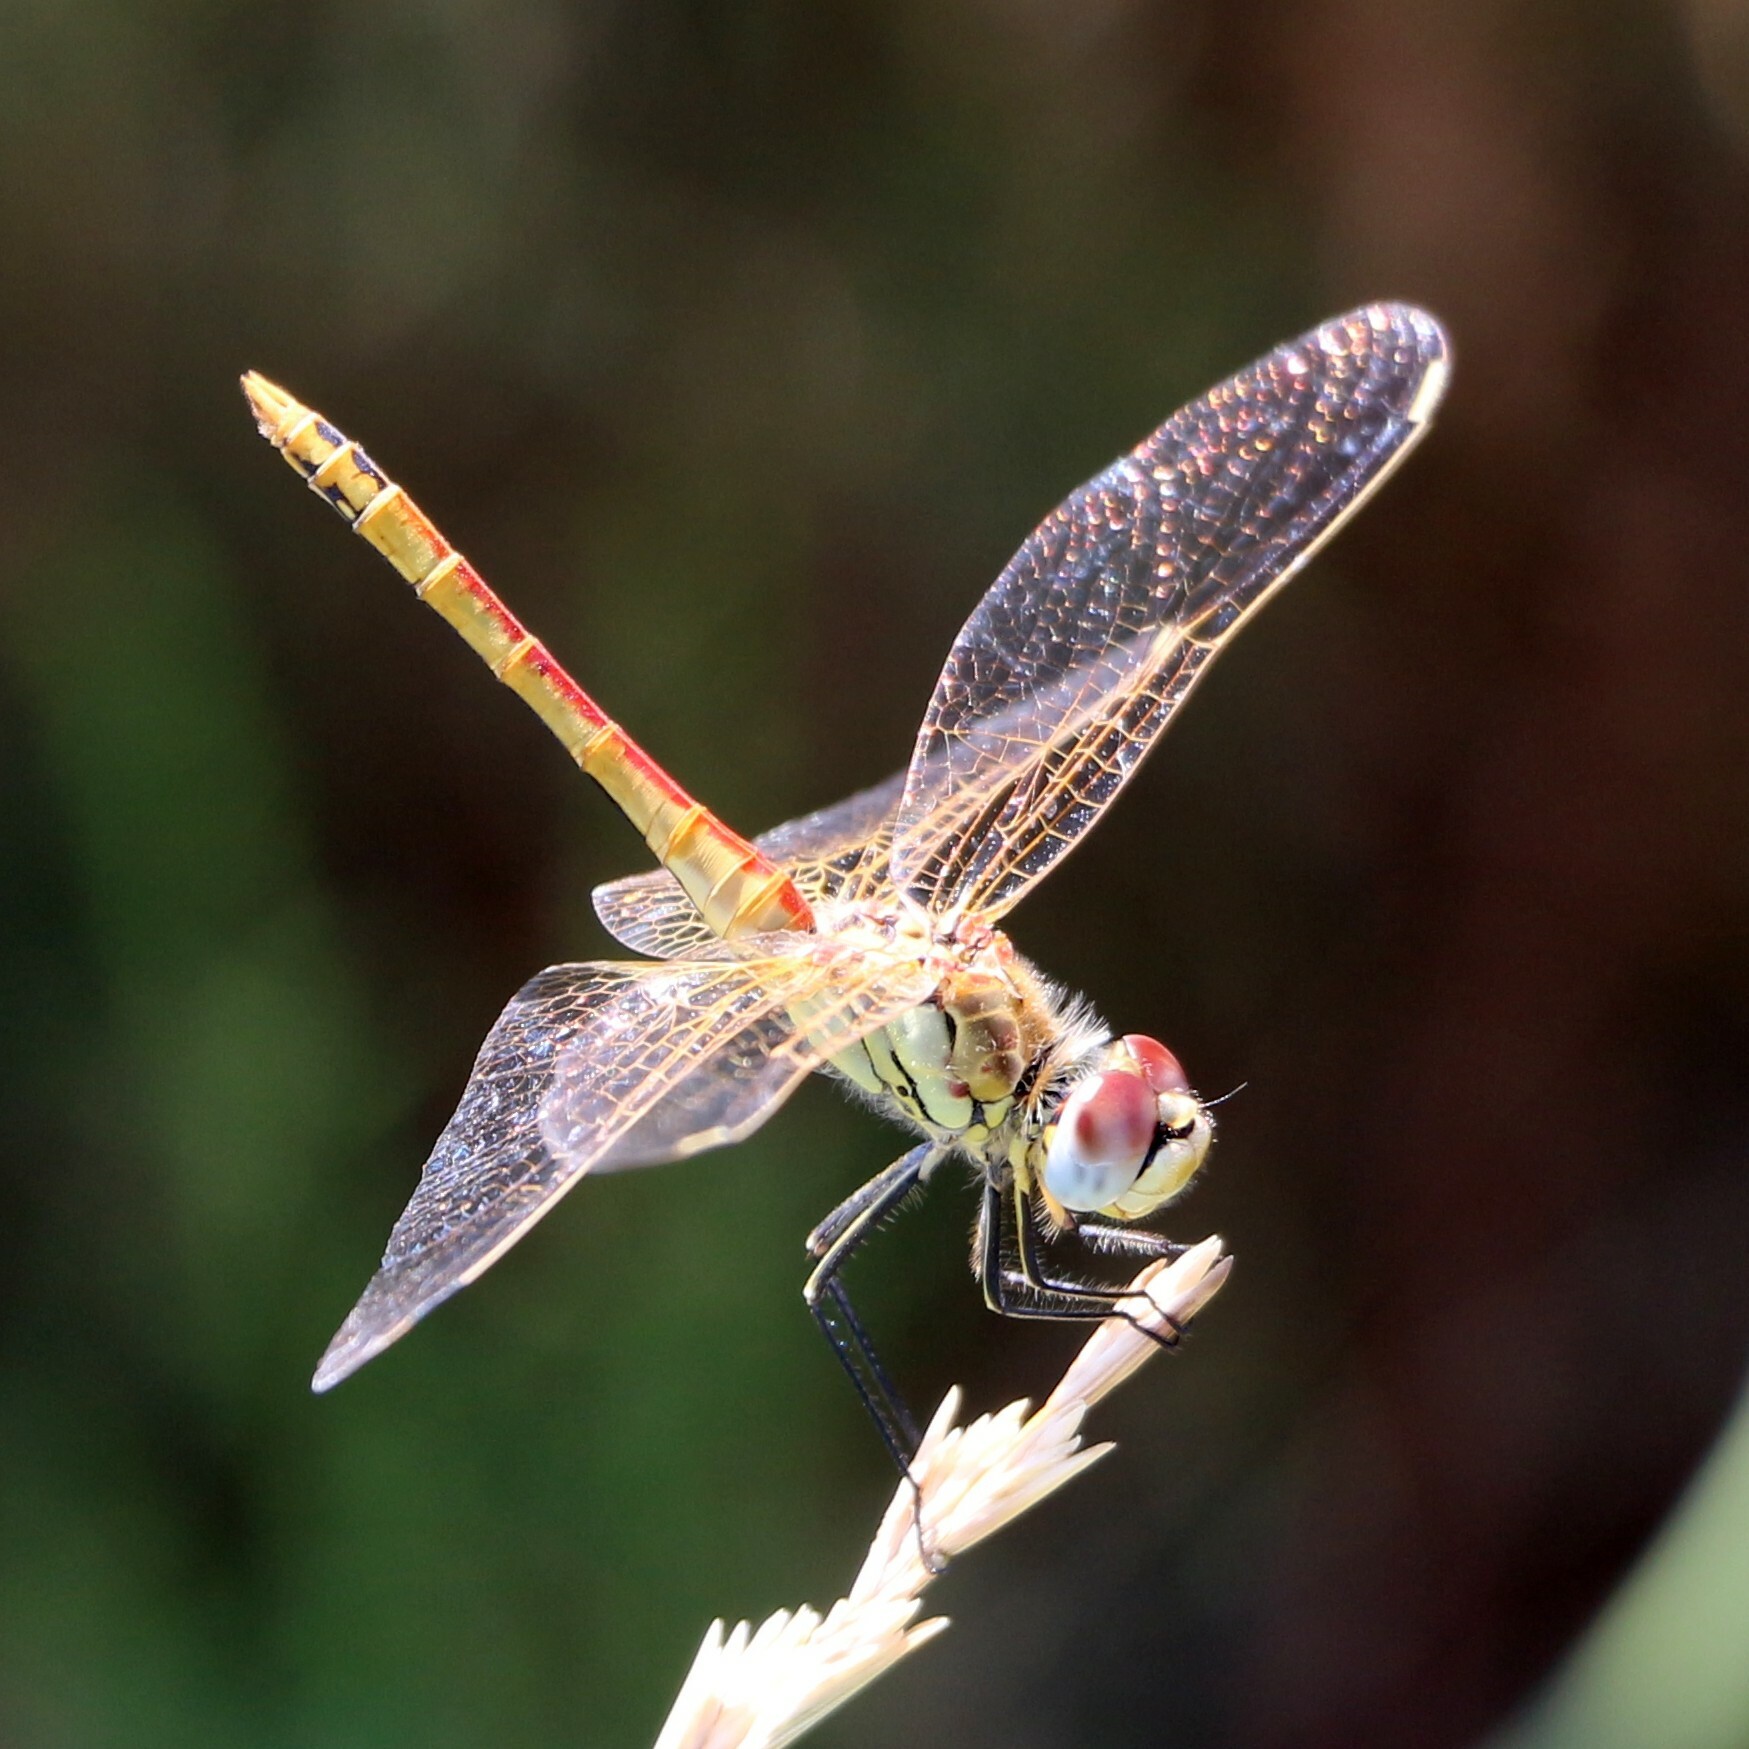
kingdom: Animalia
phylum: Arthropoda
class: Insecta
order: Odonata
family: Libellulidae
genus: Sympetrum
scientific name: Sympetrum fonscolombii
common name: Red-veined darter
